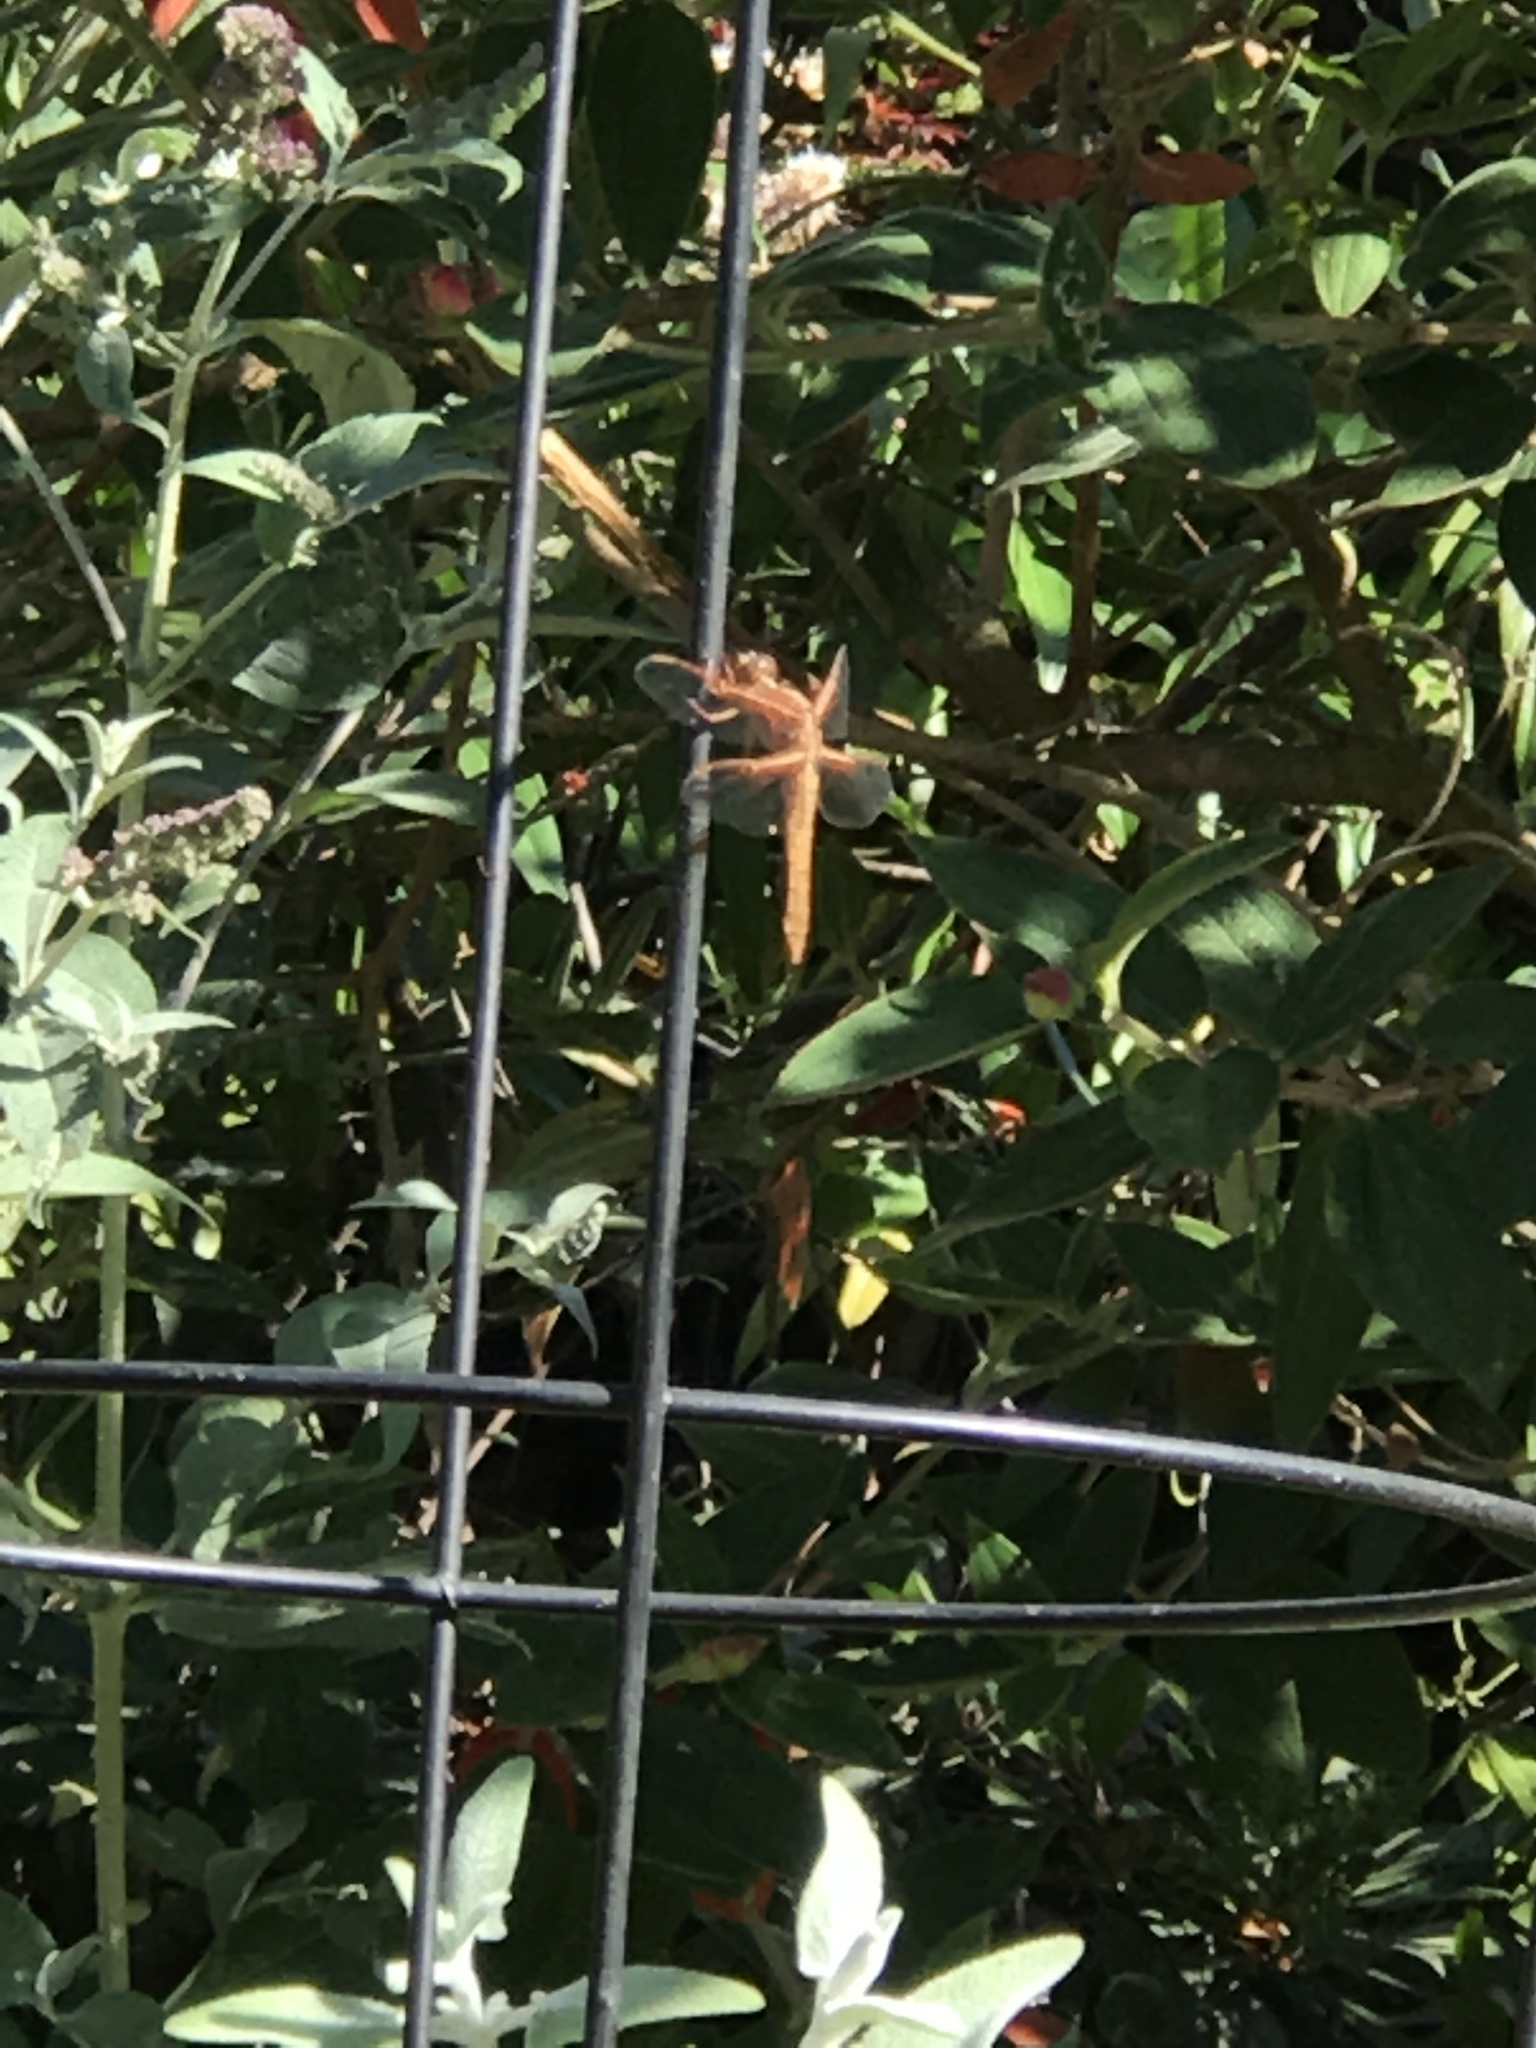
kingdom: Animalia
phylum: Arthropoda
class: Insecta
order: Odonata
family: Libellulidae
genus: Libellula
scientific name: Libellula saturata
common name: Flame skimmer
